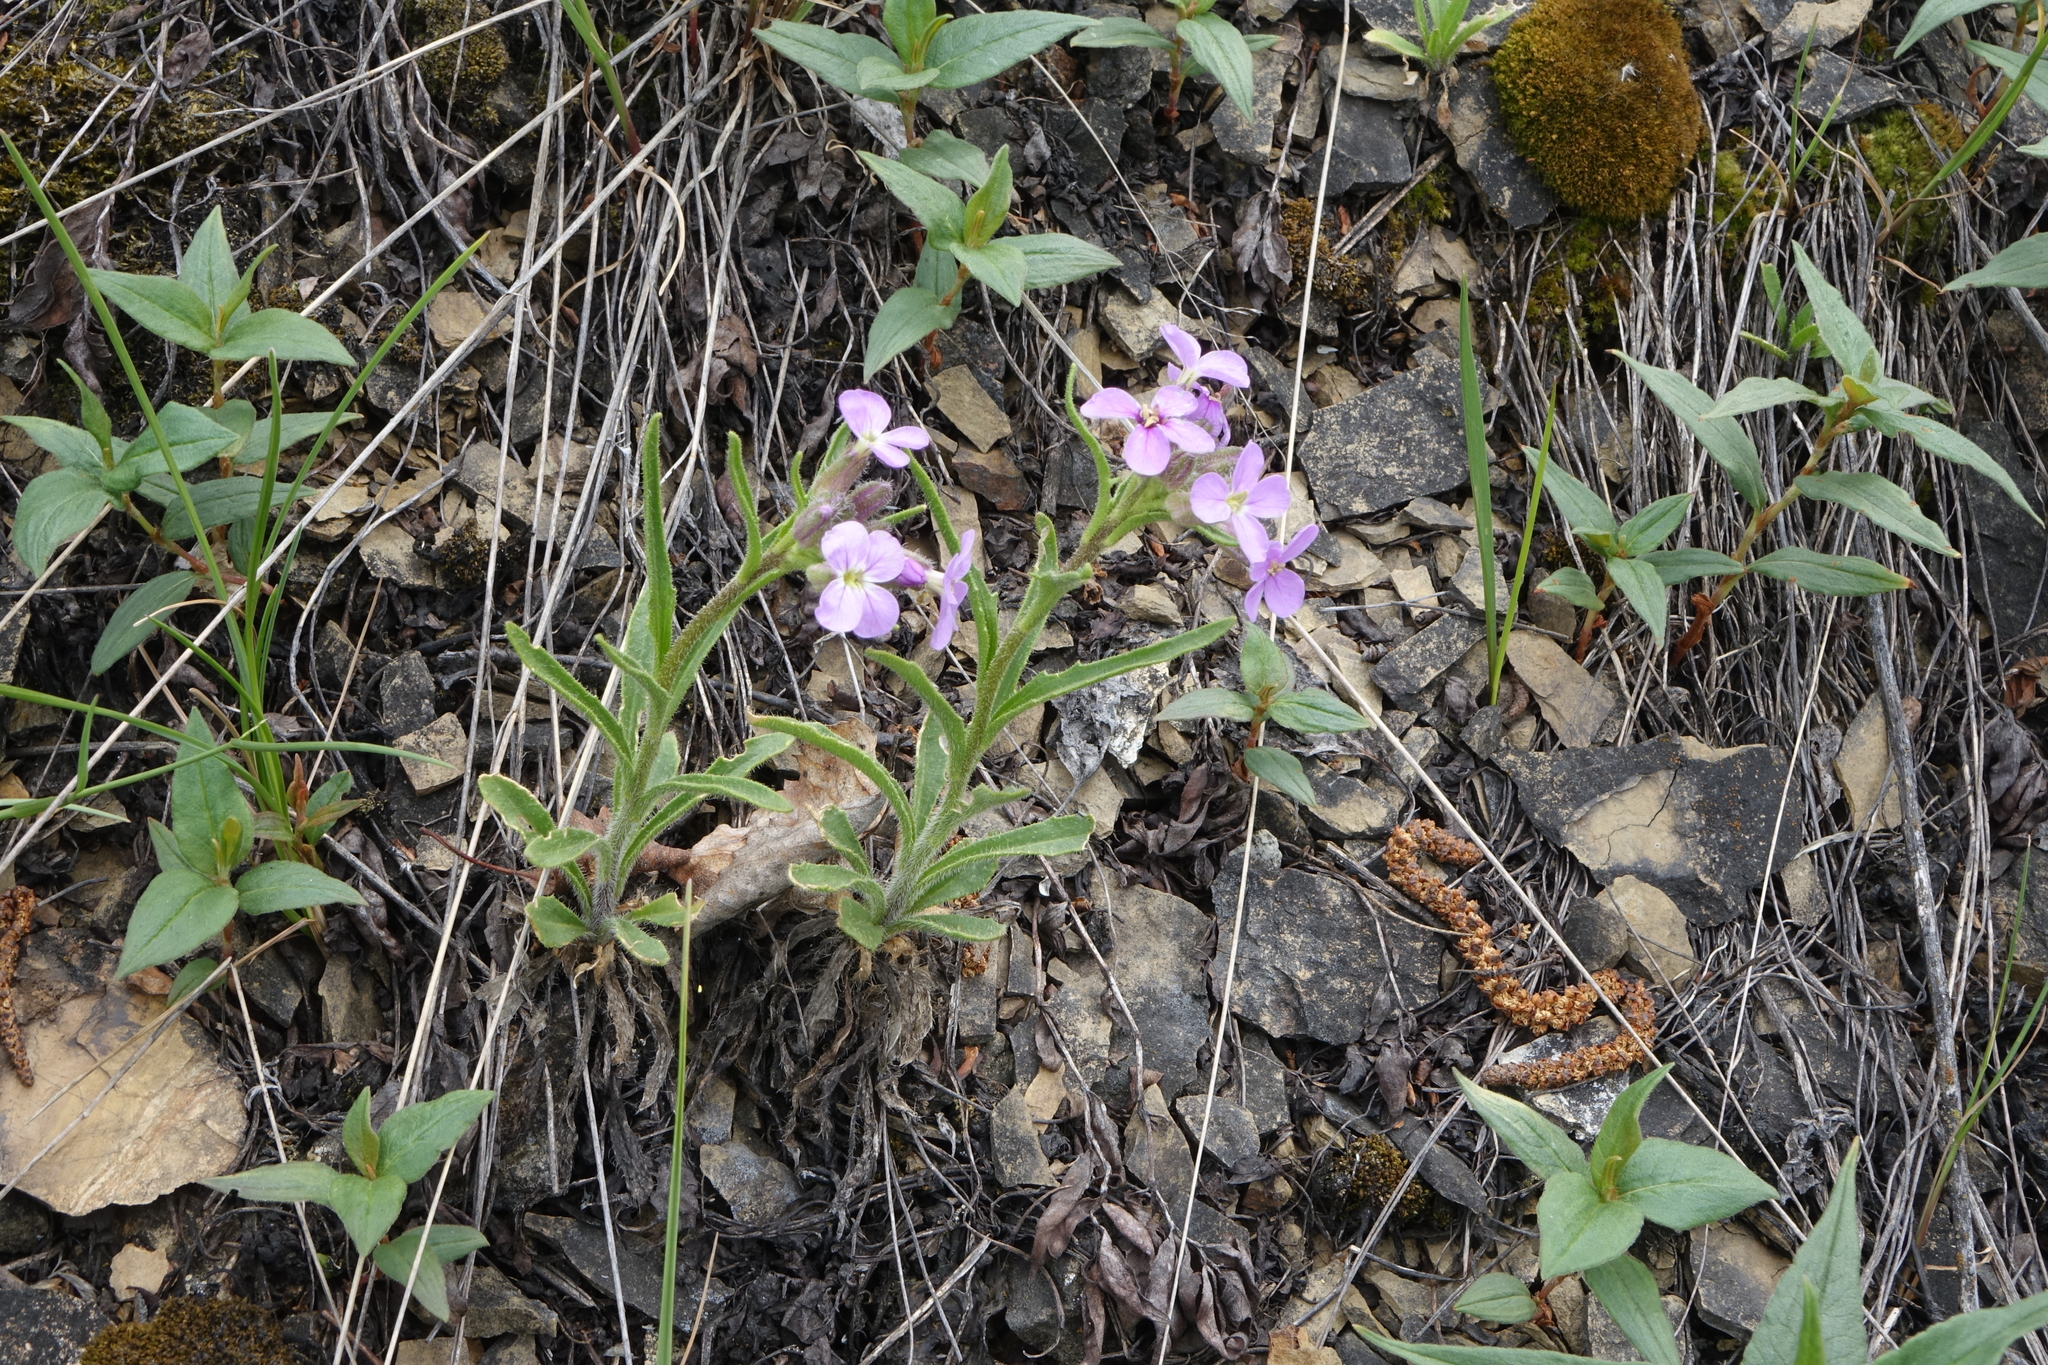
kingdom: Plantae
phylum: Tracheophyta
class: Magnoliopsida
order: Brassicales
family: Brassicaceae
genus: Clausia
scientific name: Clausia aprica
